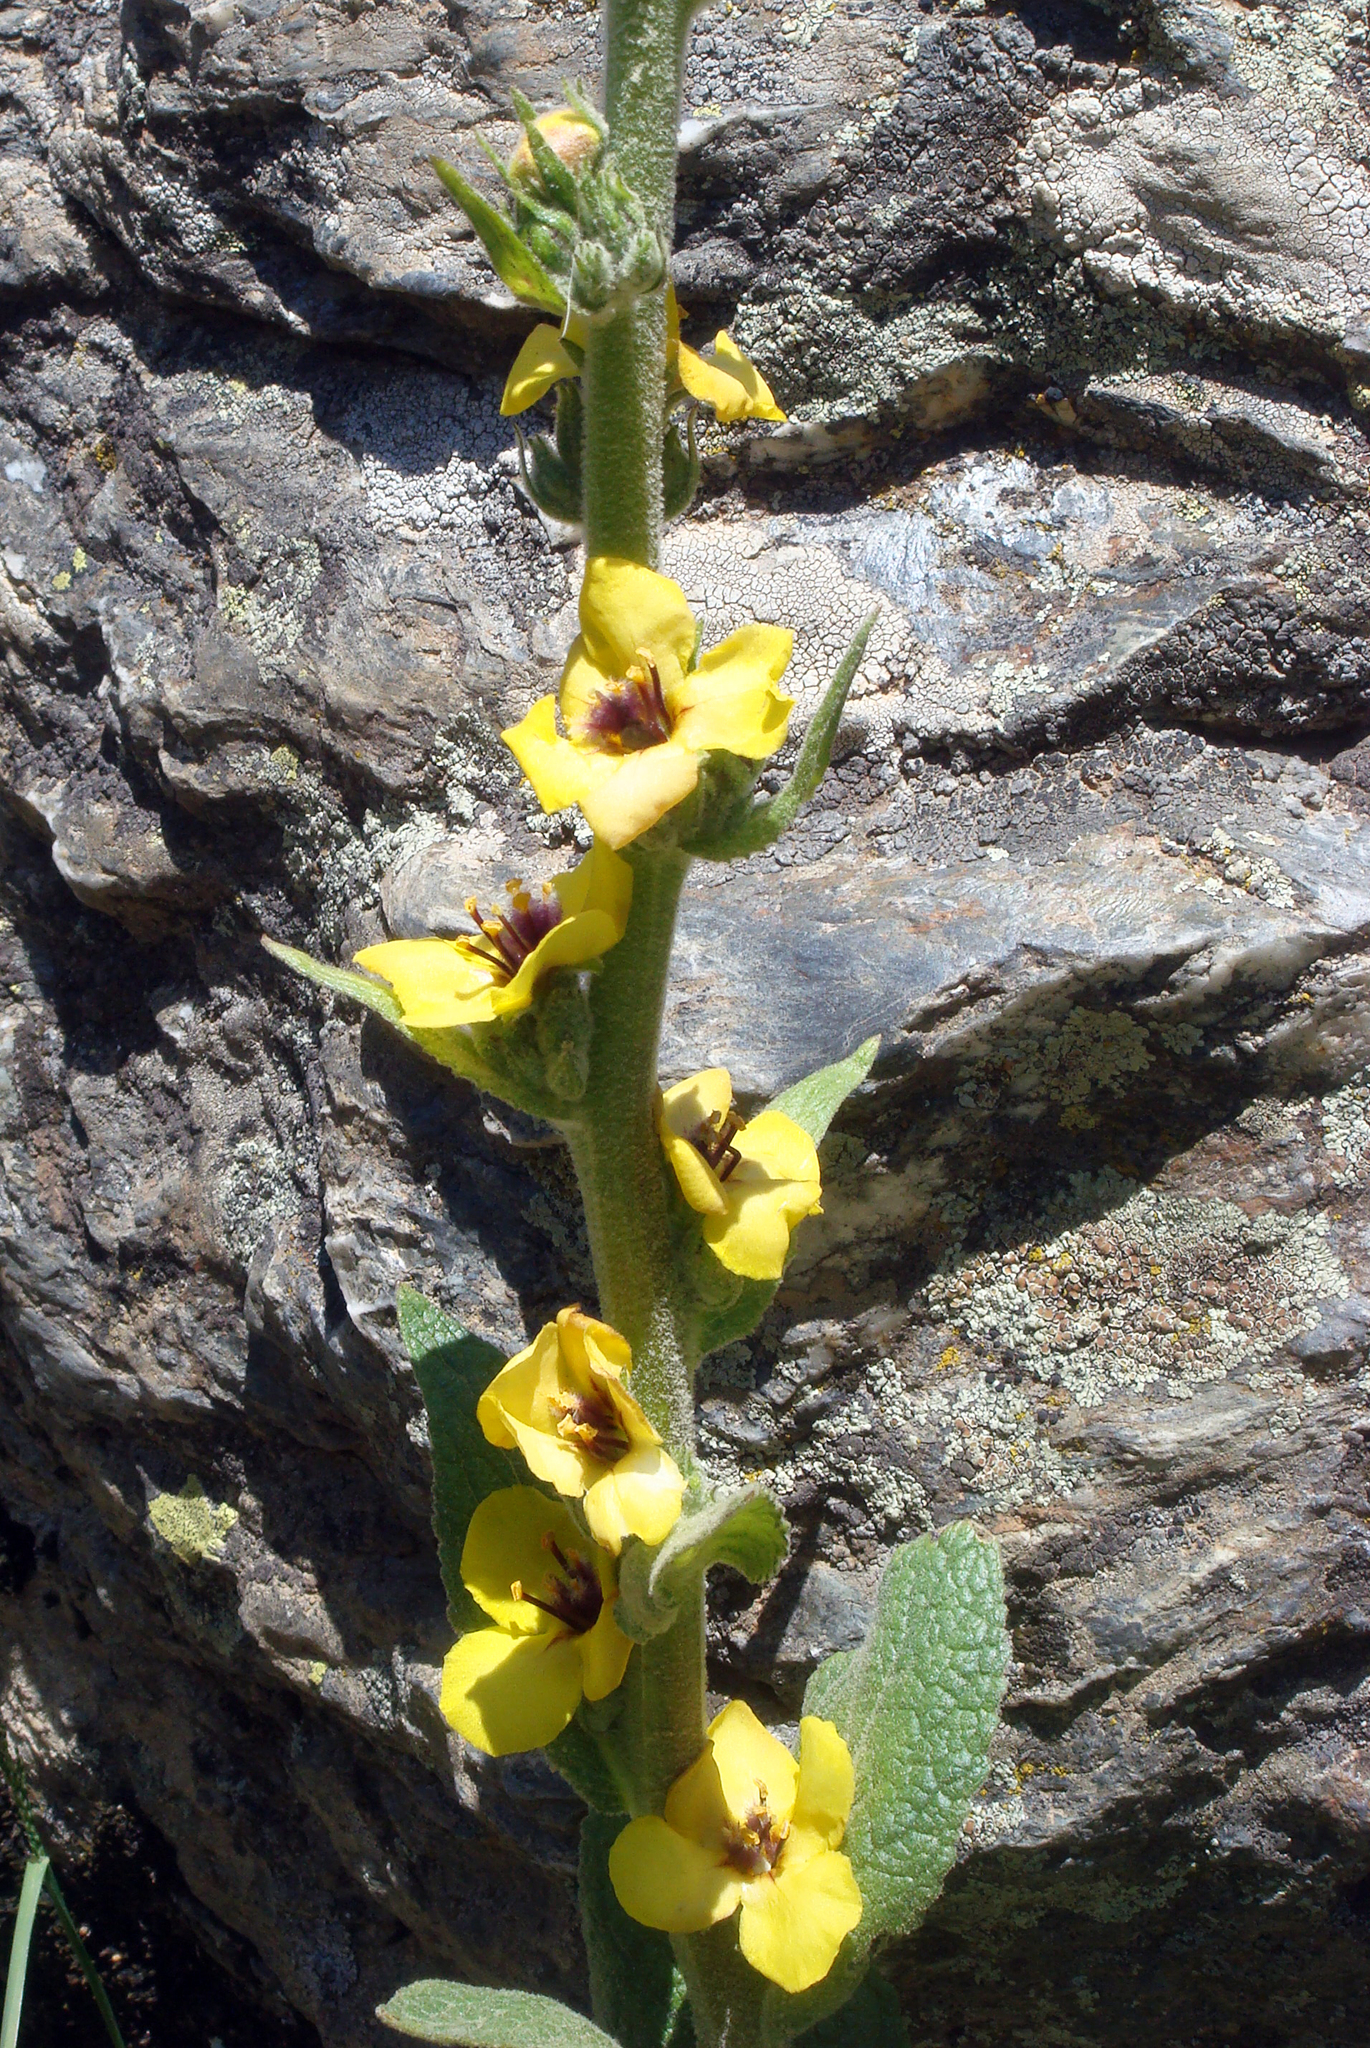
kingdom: Plantae
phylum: Tracheophyta
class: Magnoliopsida
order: Lamiales
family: Scrophulariaceae
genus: Verbascum
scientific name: Verbascum conocarpum
